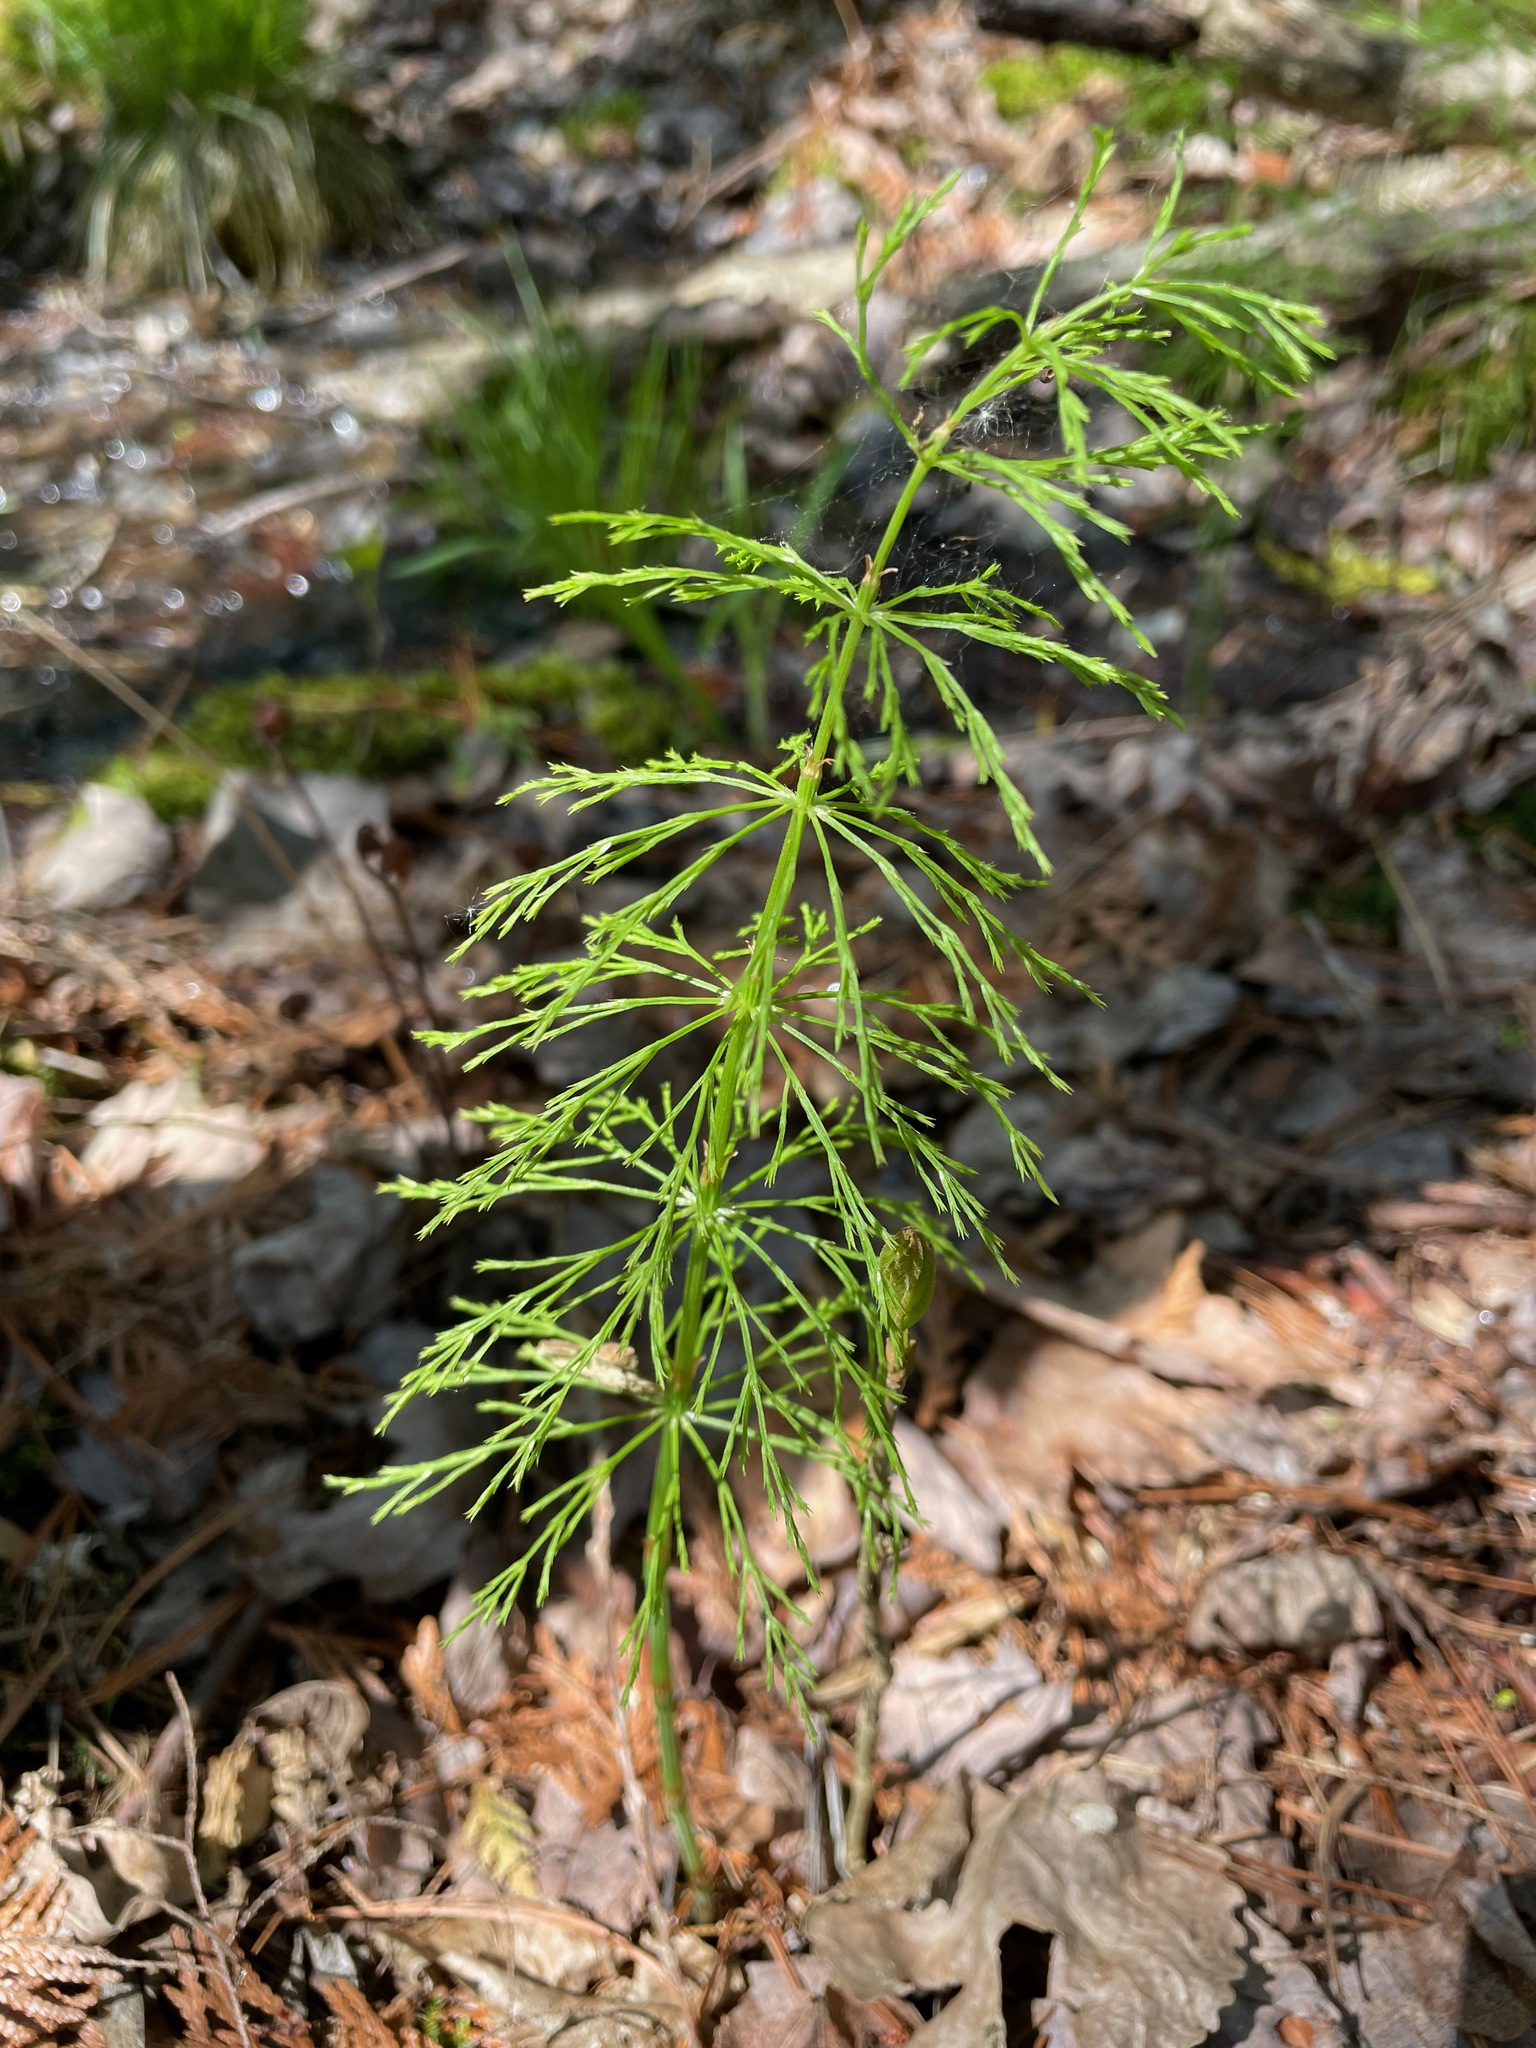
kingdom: Plantae
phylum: Tracheophyta
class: Polypodiopsida
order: Equisetales
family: Equisetaceae
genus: Equisetum
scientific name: Equisetum sylvaticum
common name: Wood horsetail
